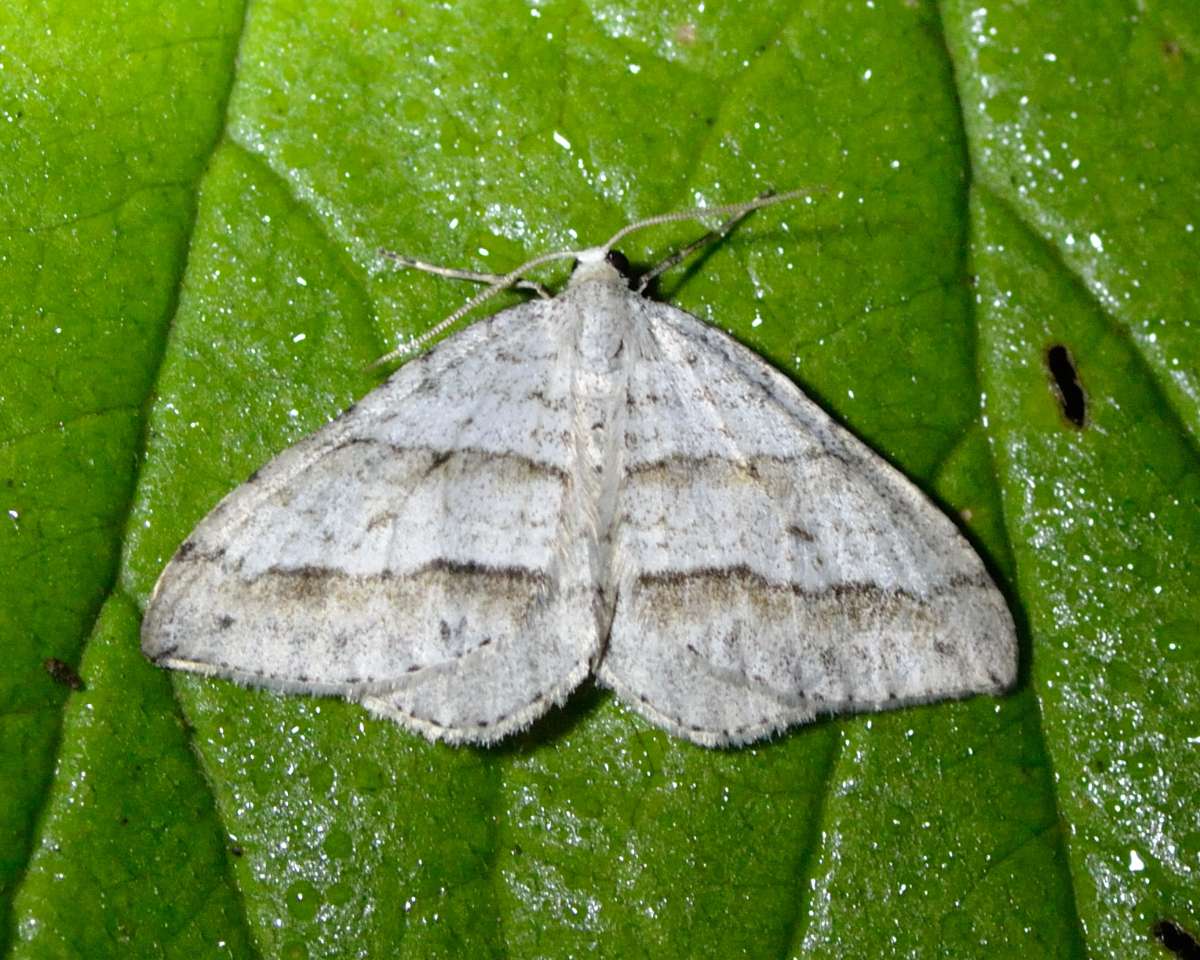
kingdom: Animalia
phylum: Arthropoda
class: Insecta
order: Lepidoptera
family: Geometridae
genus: Perizoma
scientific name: Perizoma parallelolineata
